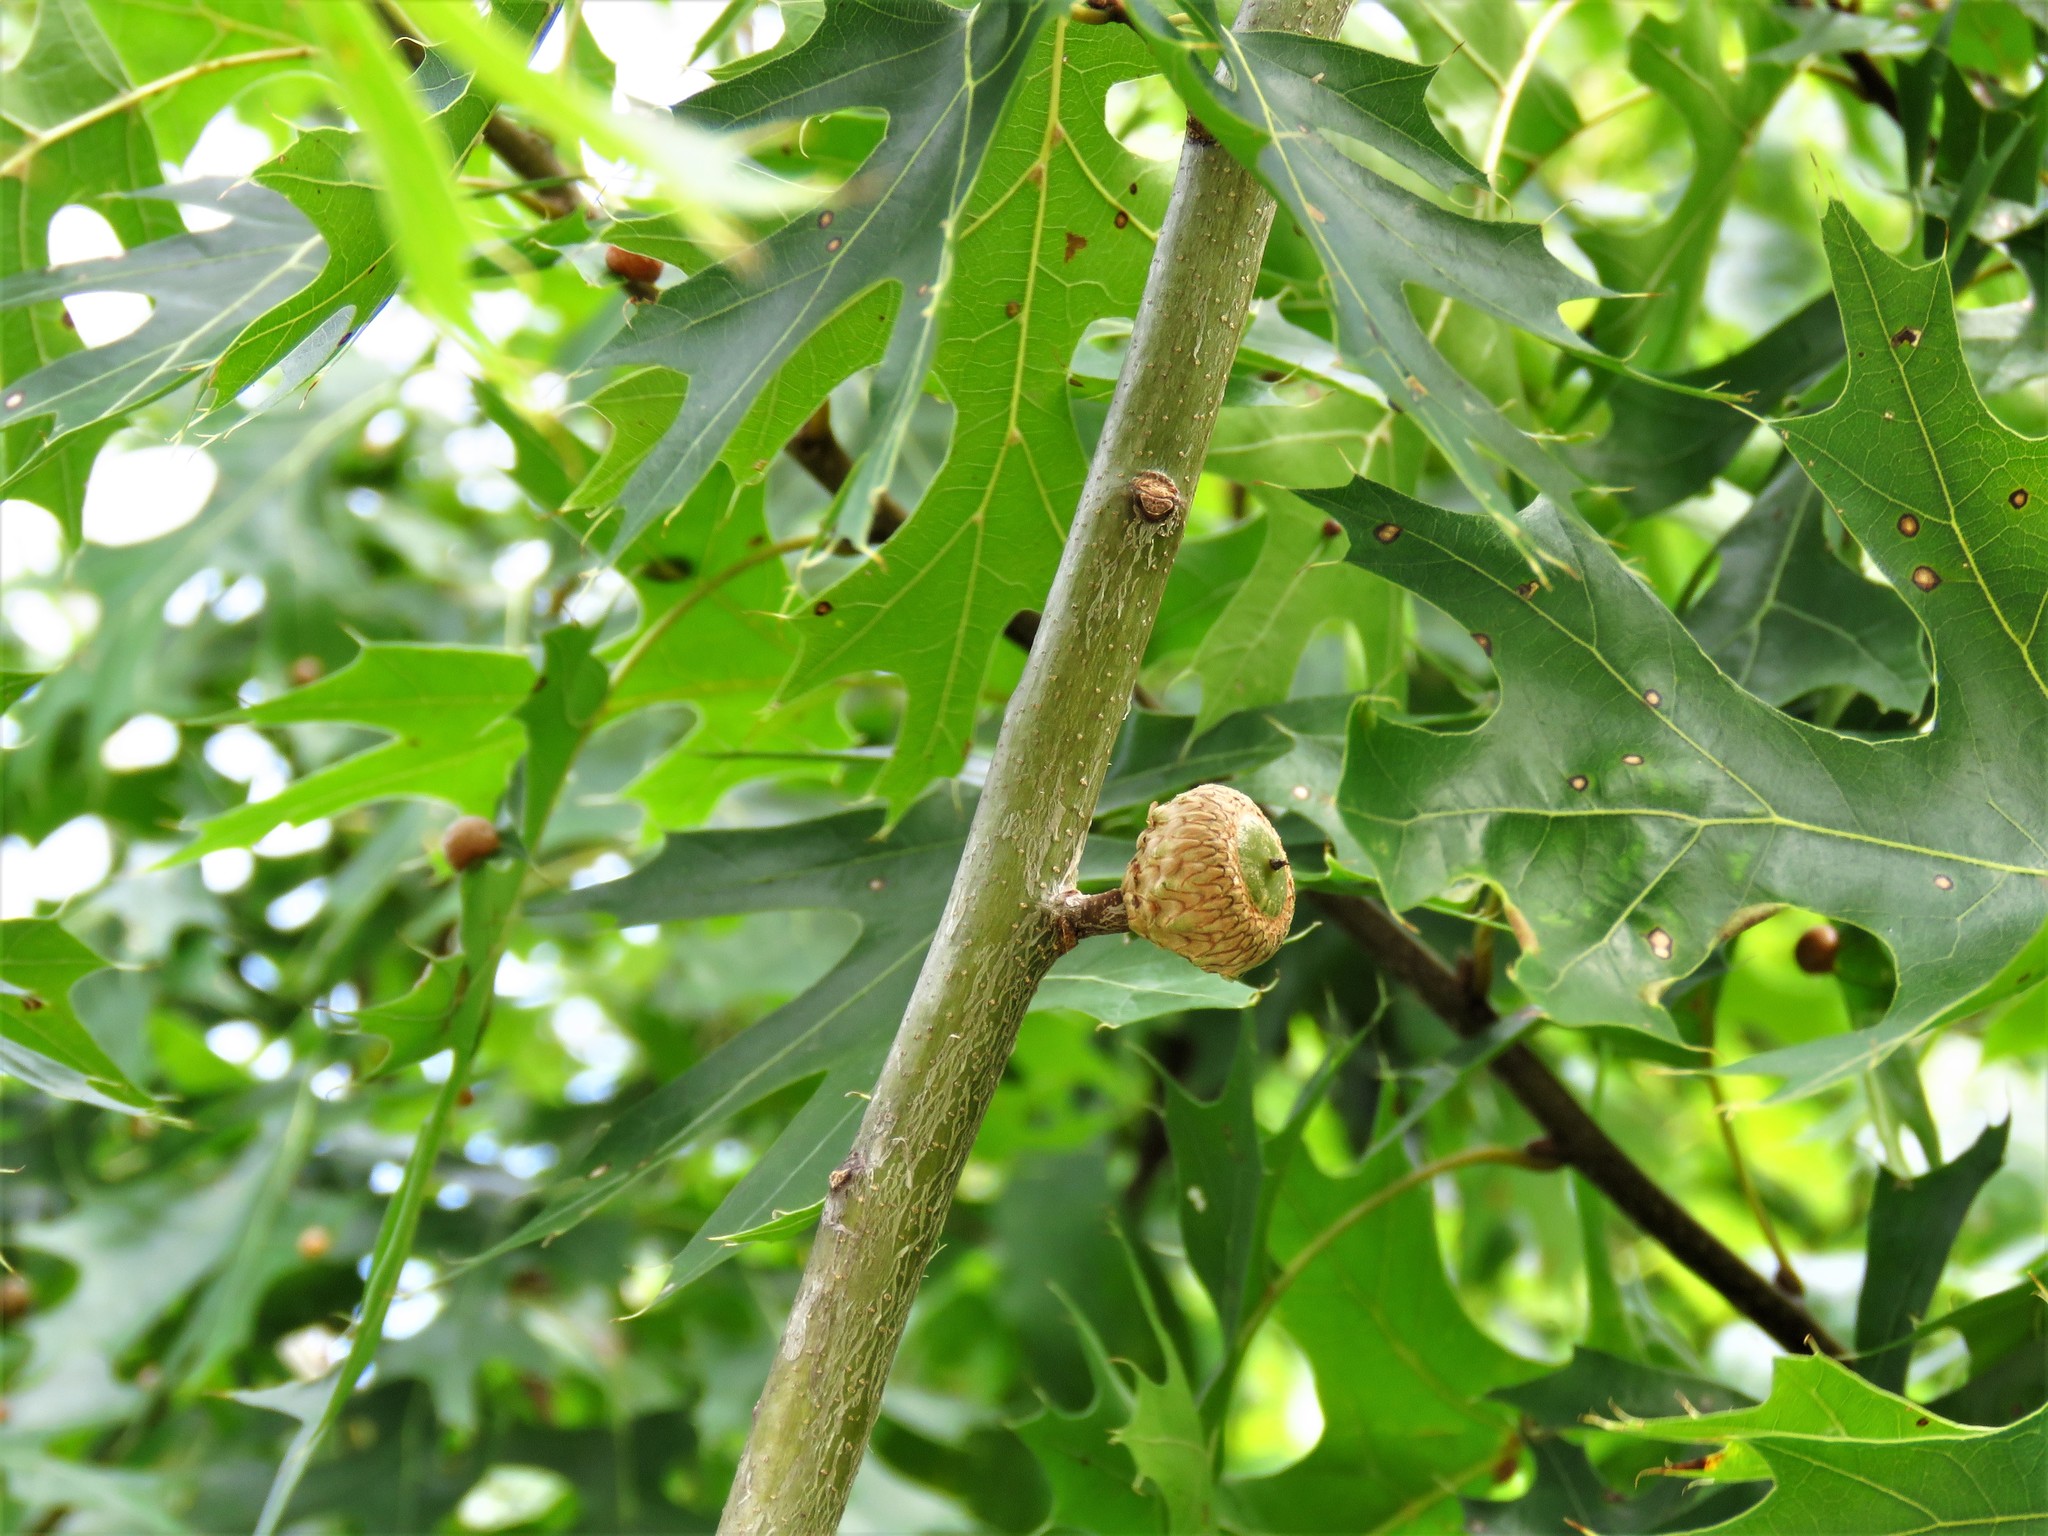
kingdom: Plantae
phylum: Tracheophyta
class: Magnoliopsida
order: Fagales
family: Fagaceae
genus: Quercus
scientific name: Quercus shumardii
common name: Shumard oak
